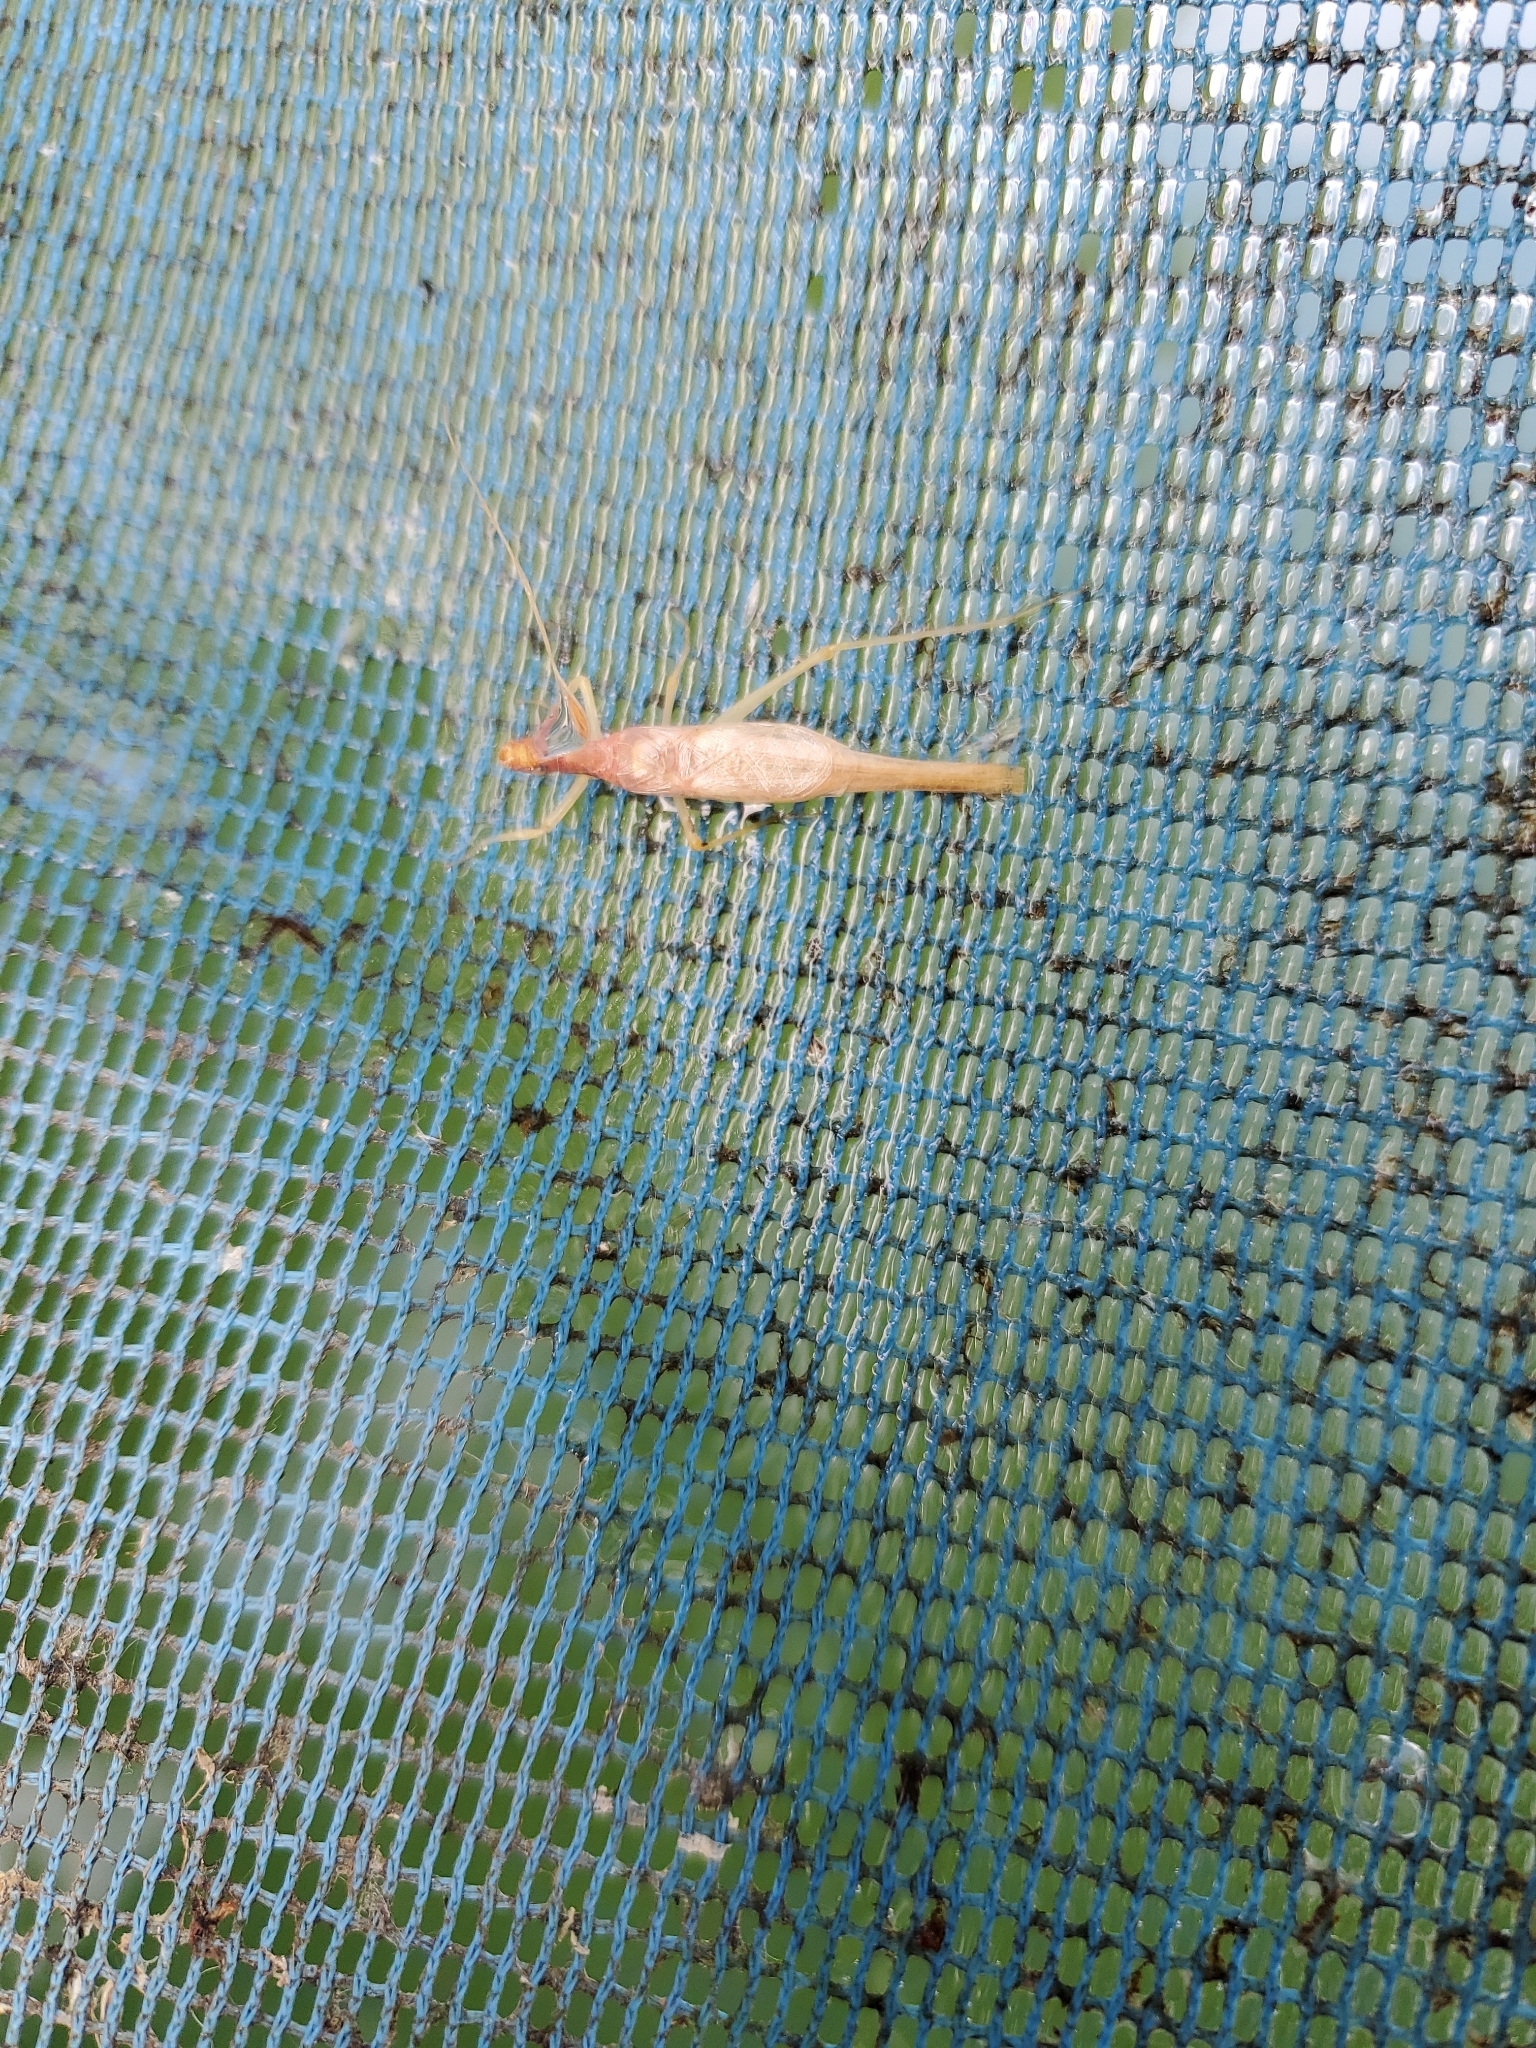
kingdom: Animalia
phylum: Arthropoda
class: Insecta
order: Orthoptera
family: Gryllidae
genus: Neoxabea
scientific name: Neoxabea bipunctata
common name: Two-spotted tree cricket
